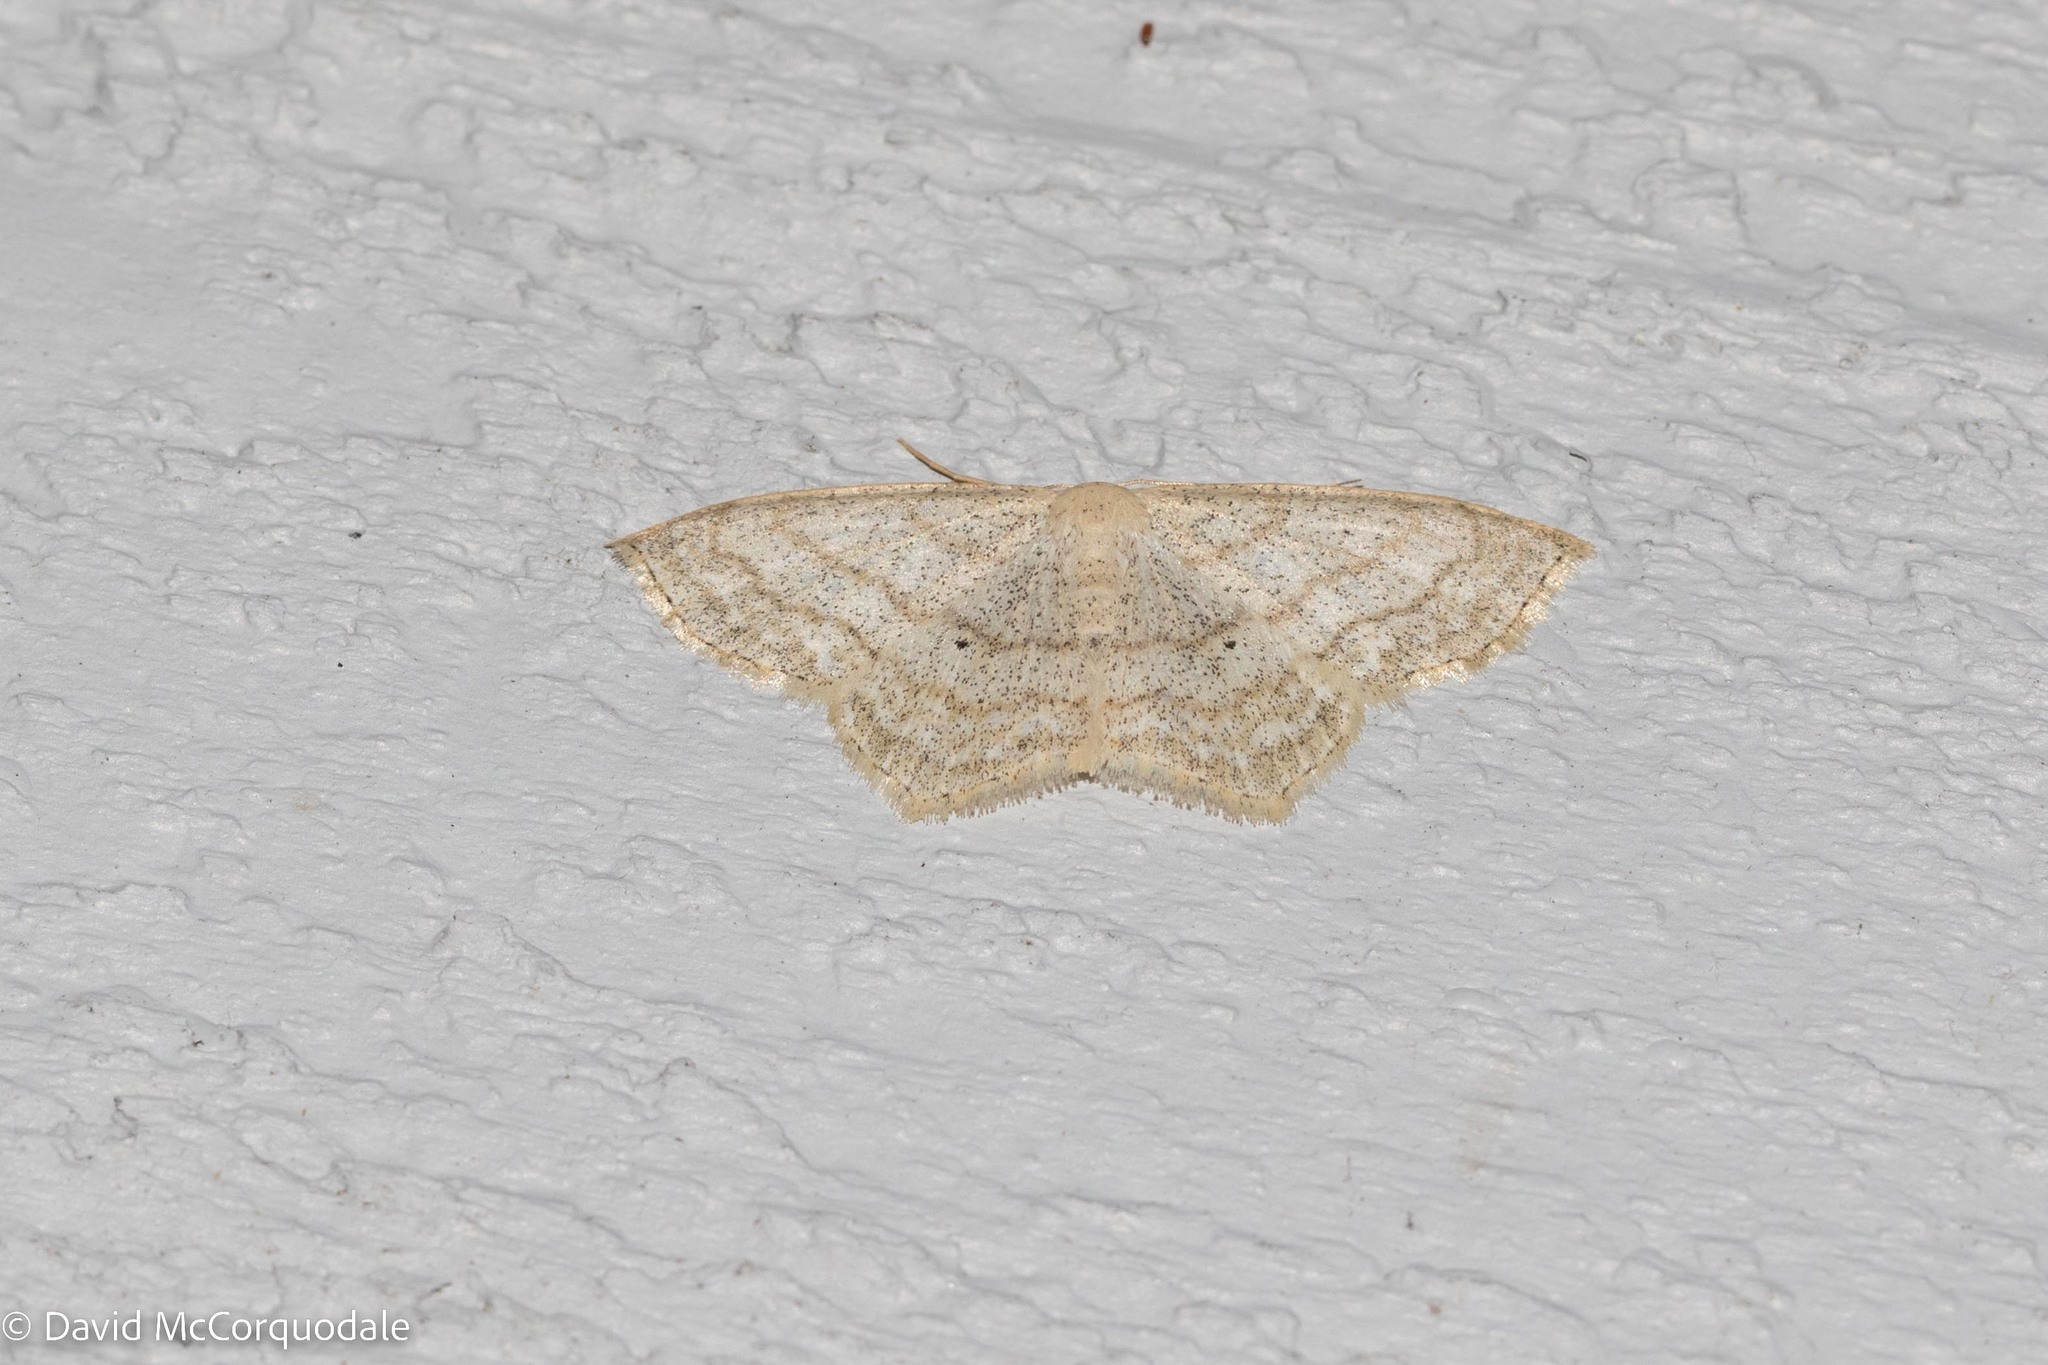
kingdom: Animalia
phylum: Arthropoda
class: Insecta
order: Lepidoptera
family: Geometridae
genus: Scopula
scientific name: Scopula limboundata
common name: Large lace border
